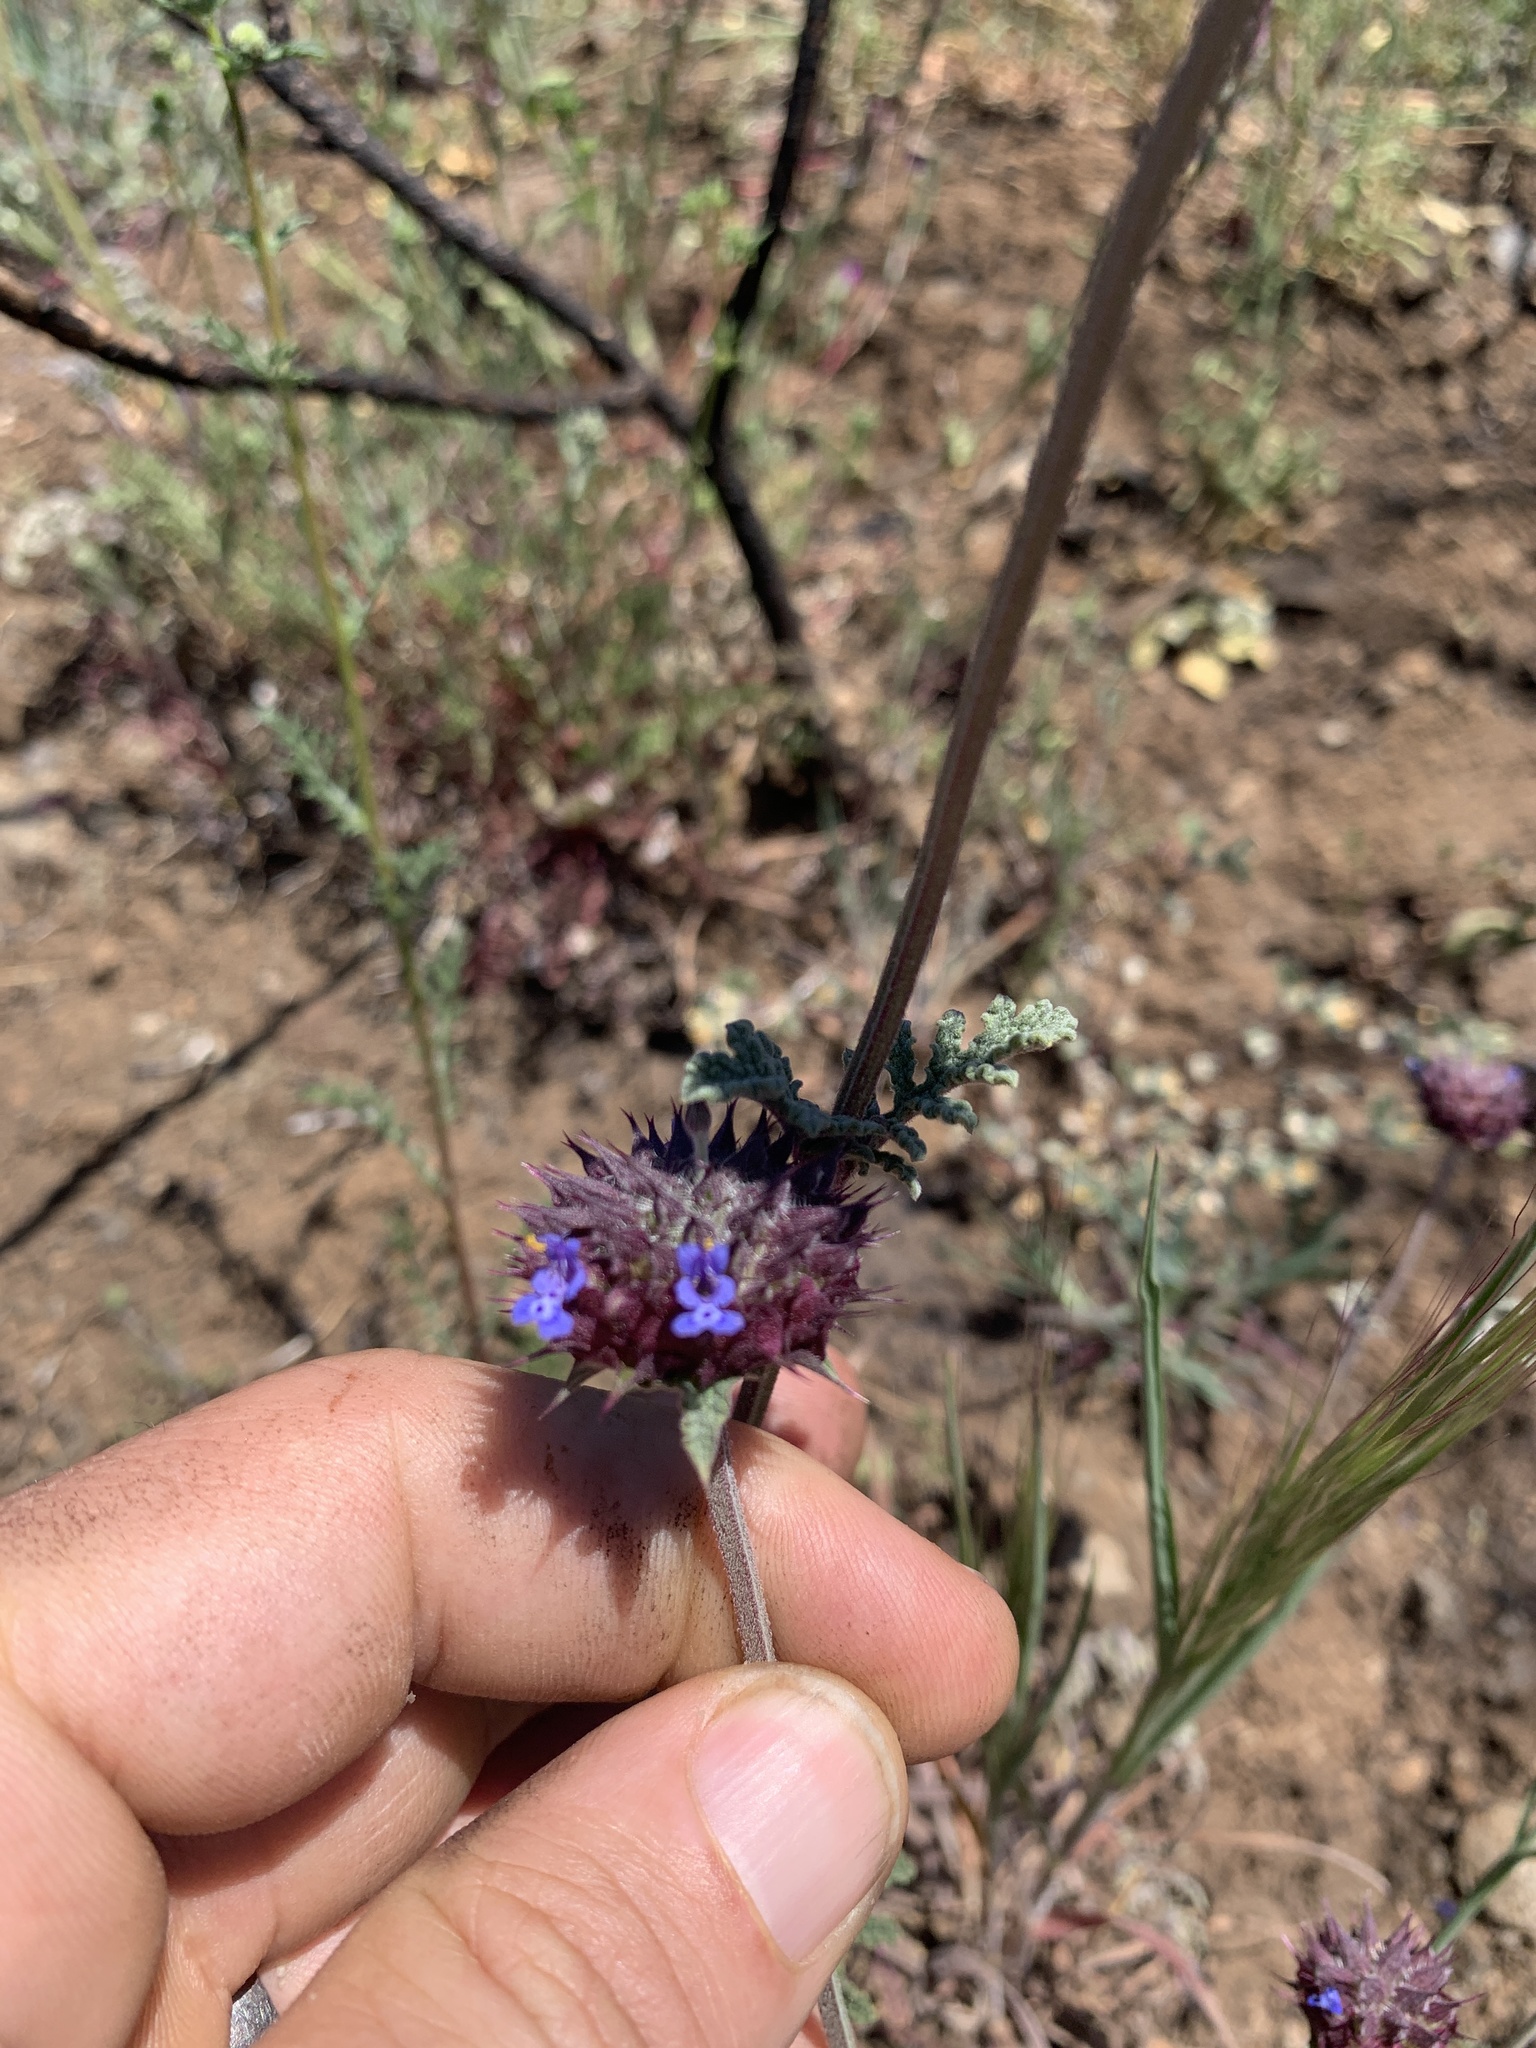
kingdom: Plantae
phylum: Tracheophyta
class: Magnoliopsida
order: Lamiales
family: Lamiaceae
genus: Salvia
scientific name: Salvia columbariae
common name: Chia
